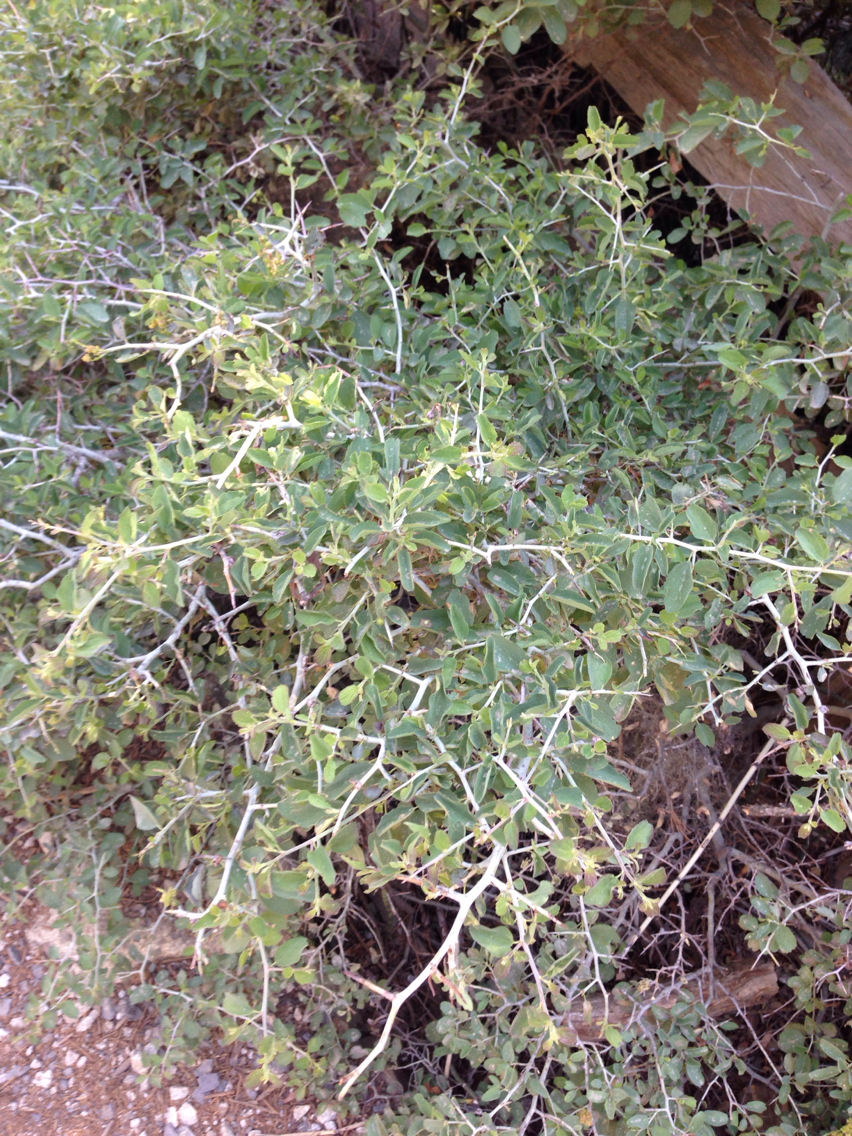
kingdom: Plantae
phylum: Tracheophyta
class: Magnoliopsida
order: Rosales
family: Rhamnaceae
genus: Ceanothus
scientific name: Ceanothus cordulatus
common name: Mountain whitethorn
